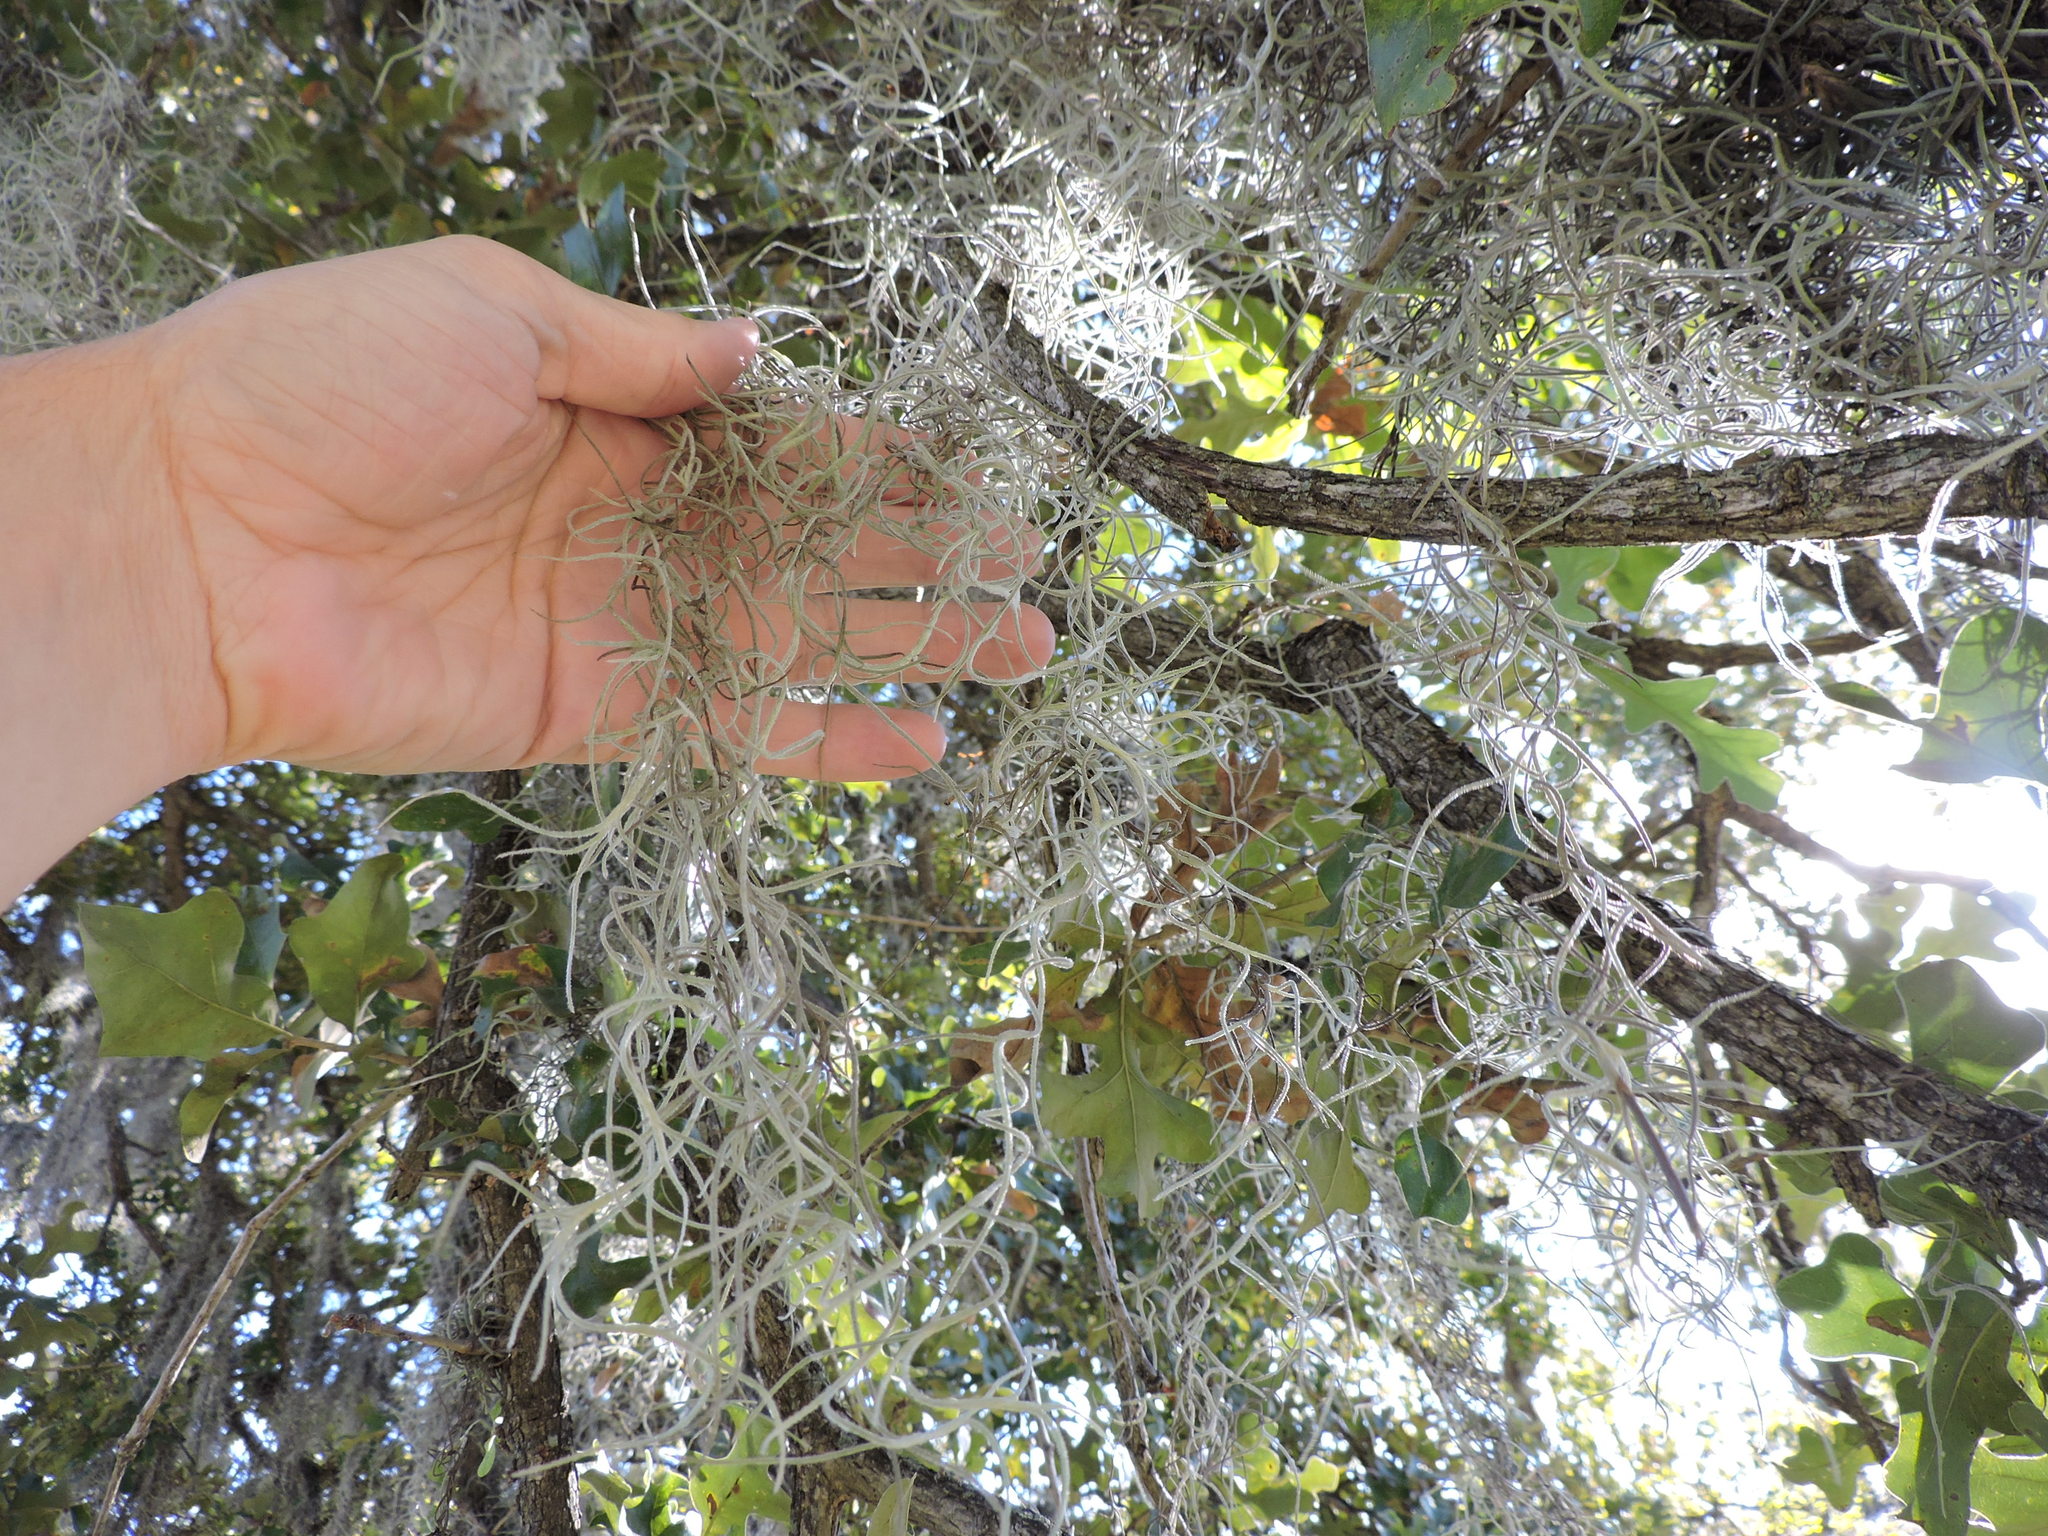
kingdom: Plantae
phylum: Tracheophyta
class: Liliopsida
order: Poales
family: Bromeliaceae
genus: Tillandsia
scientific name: Tillandsia usneoides
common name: Spanish moss
